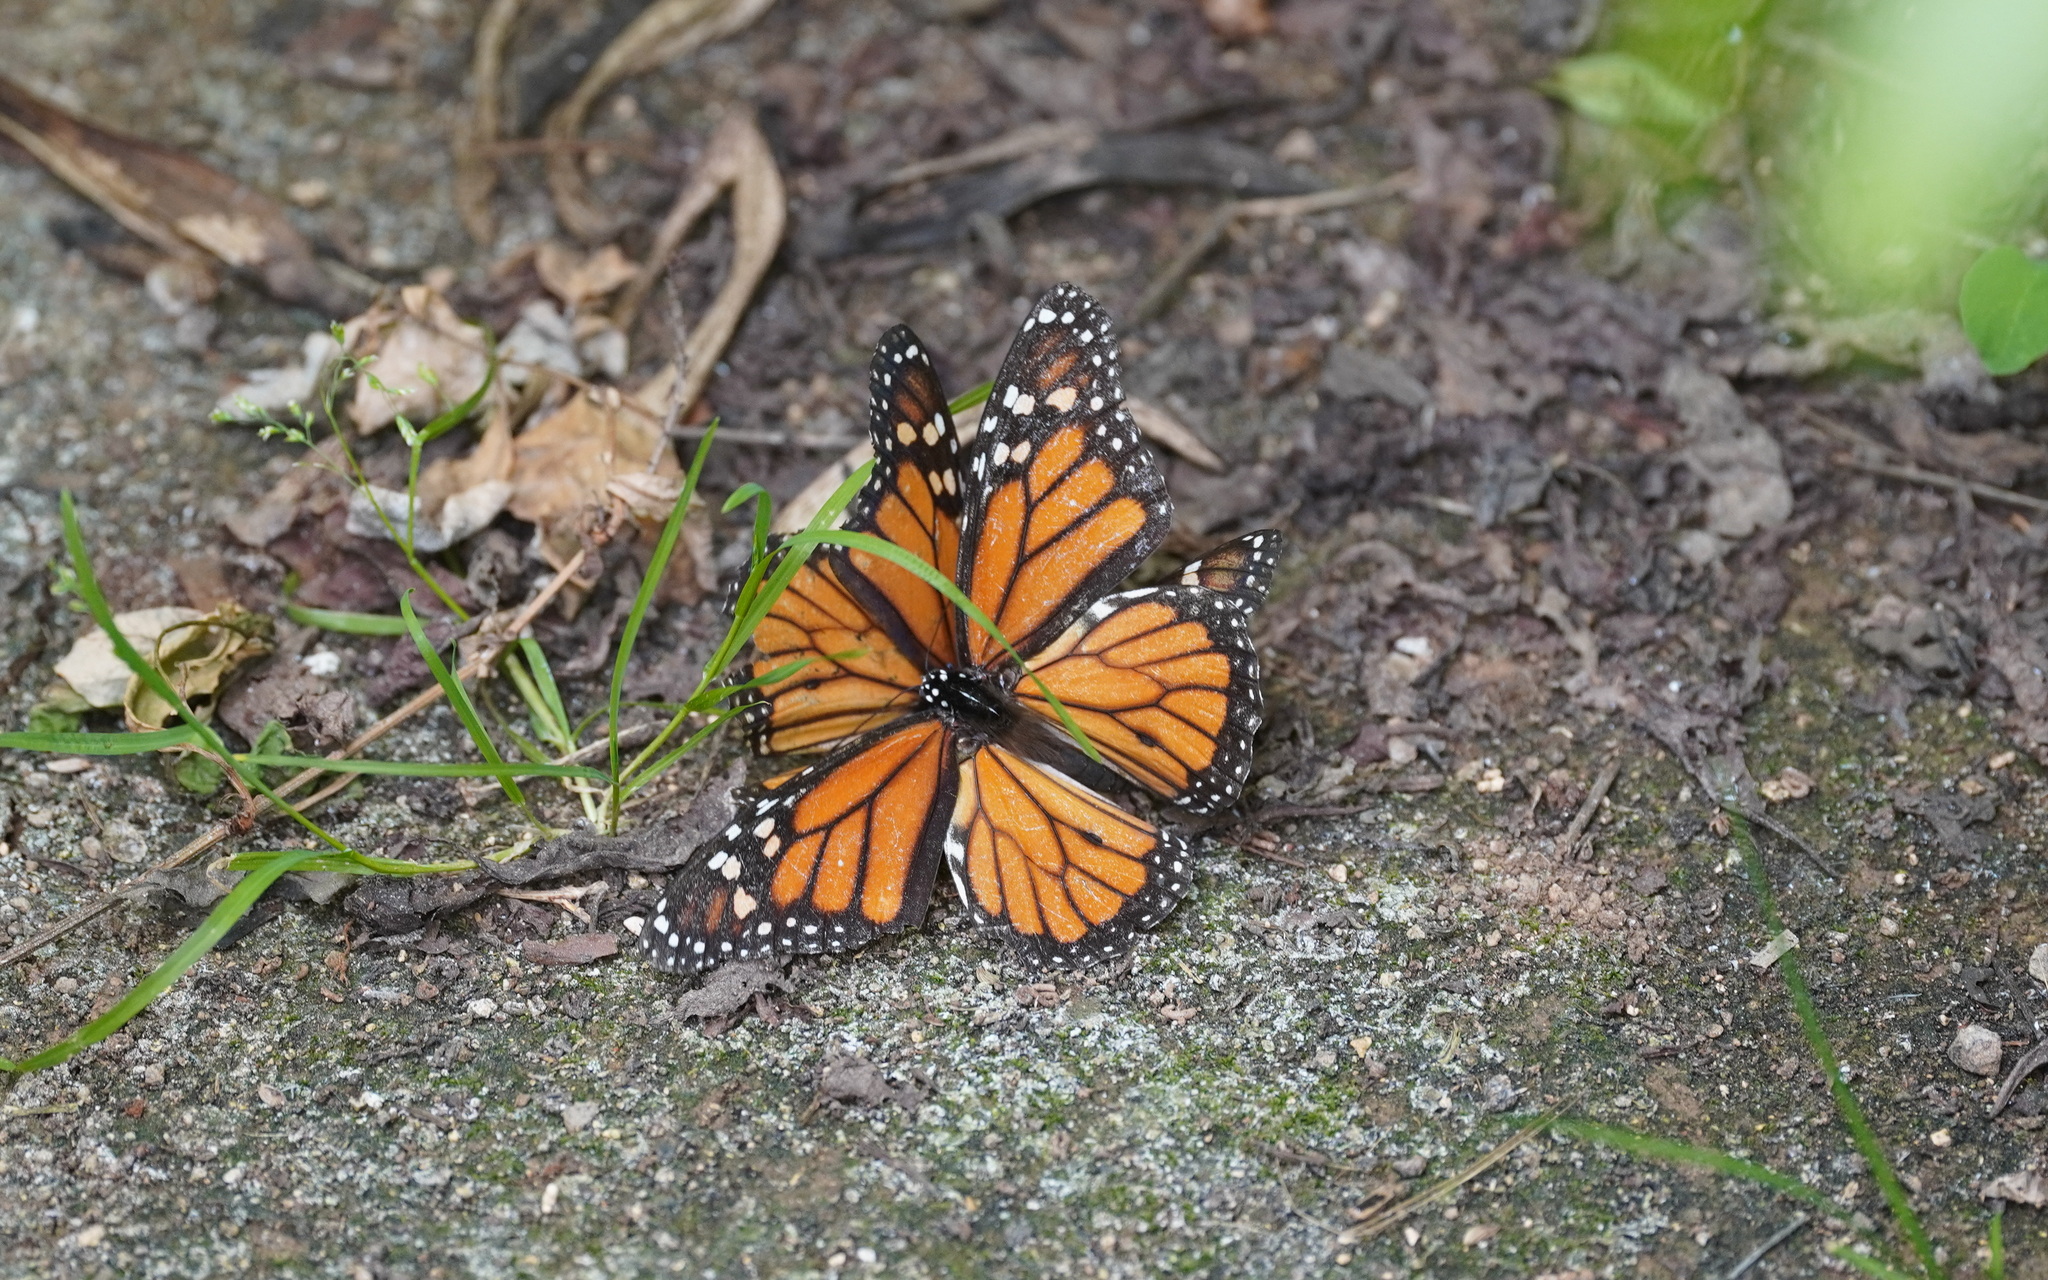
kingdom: Animalia
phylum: Arthropoda
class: Insecta
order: Lepidoptera
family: Nymphalidae
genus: Danaus
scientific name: Danaus plexippus
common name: Monarch
